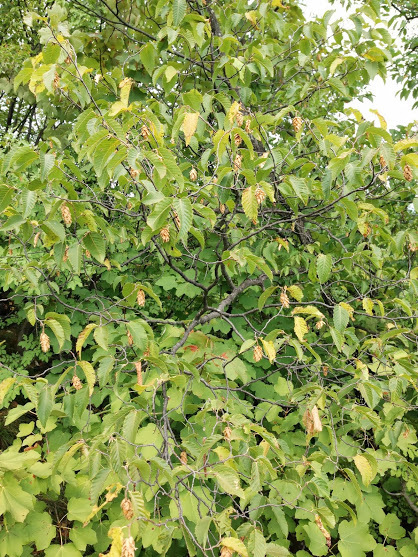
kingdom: Plantae
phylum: Tracheophyta
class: Magnoliopsida
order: Fagales
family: Betulaceae
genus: Ostrya
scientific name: Ostrya carpinifolia
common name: European hop-hornbeam
